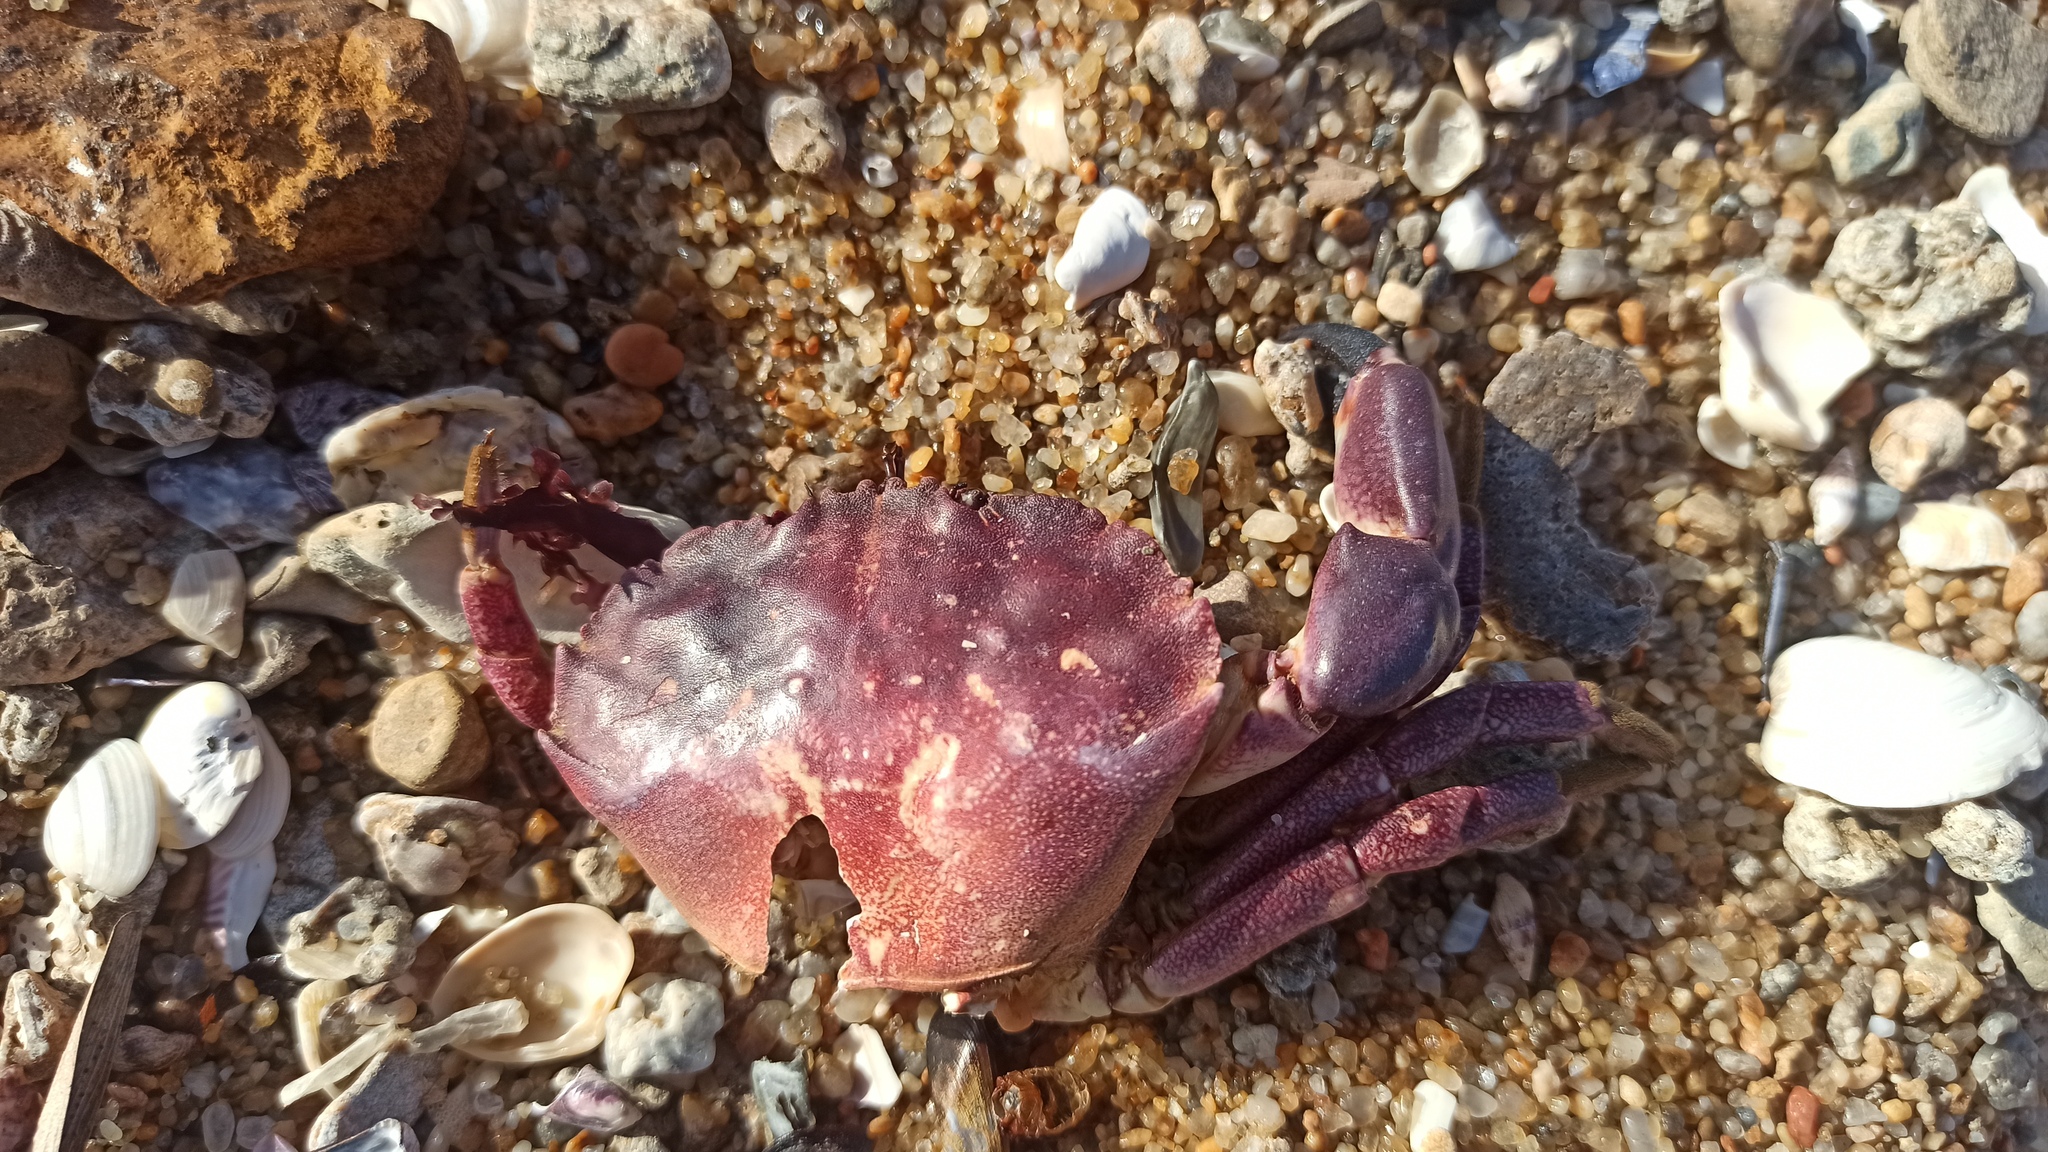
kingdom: Animalia
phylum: Arthropoda
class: Malacostraca
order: Decapoda
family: Platyxanthidae
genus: Danielethus
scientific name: Danielethus crenulatus
